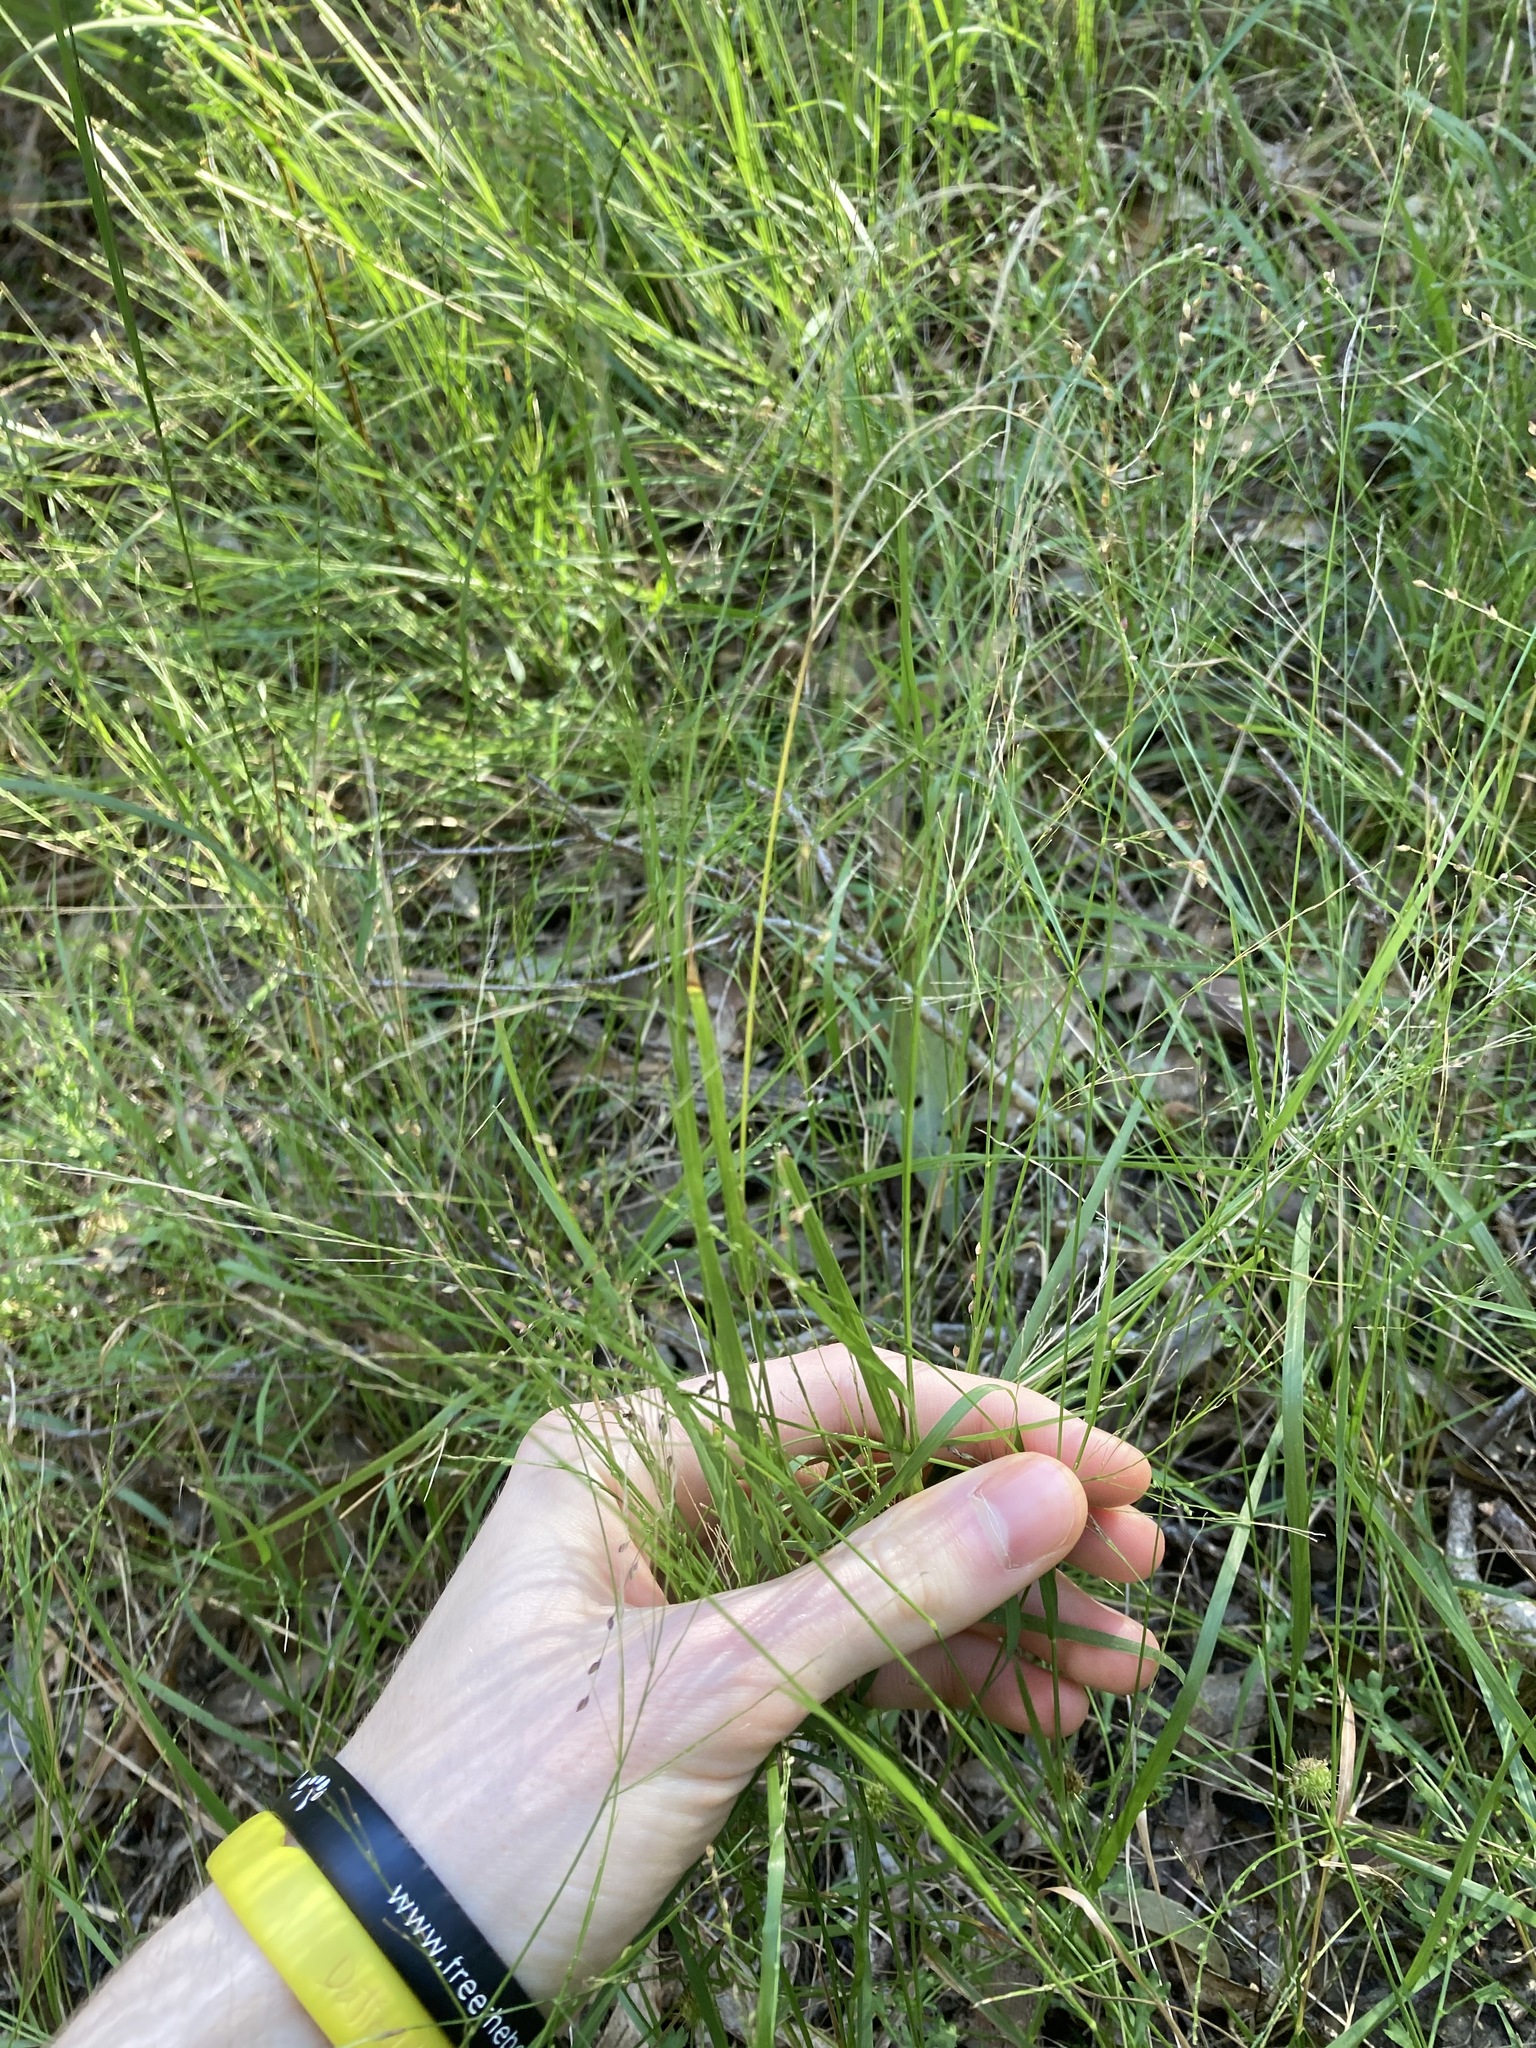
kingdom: Plantae
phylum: Tracheophyta
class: Liliopsida
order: Poales
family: Poaceae
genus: Panicum
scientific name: Panicum simile
